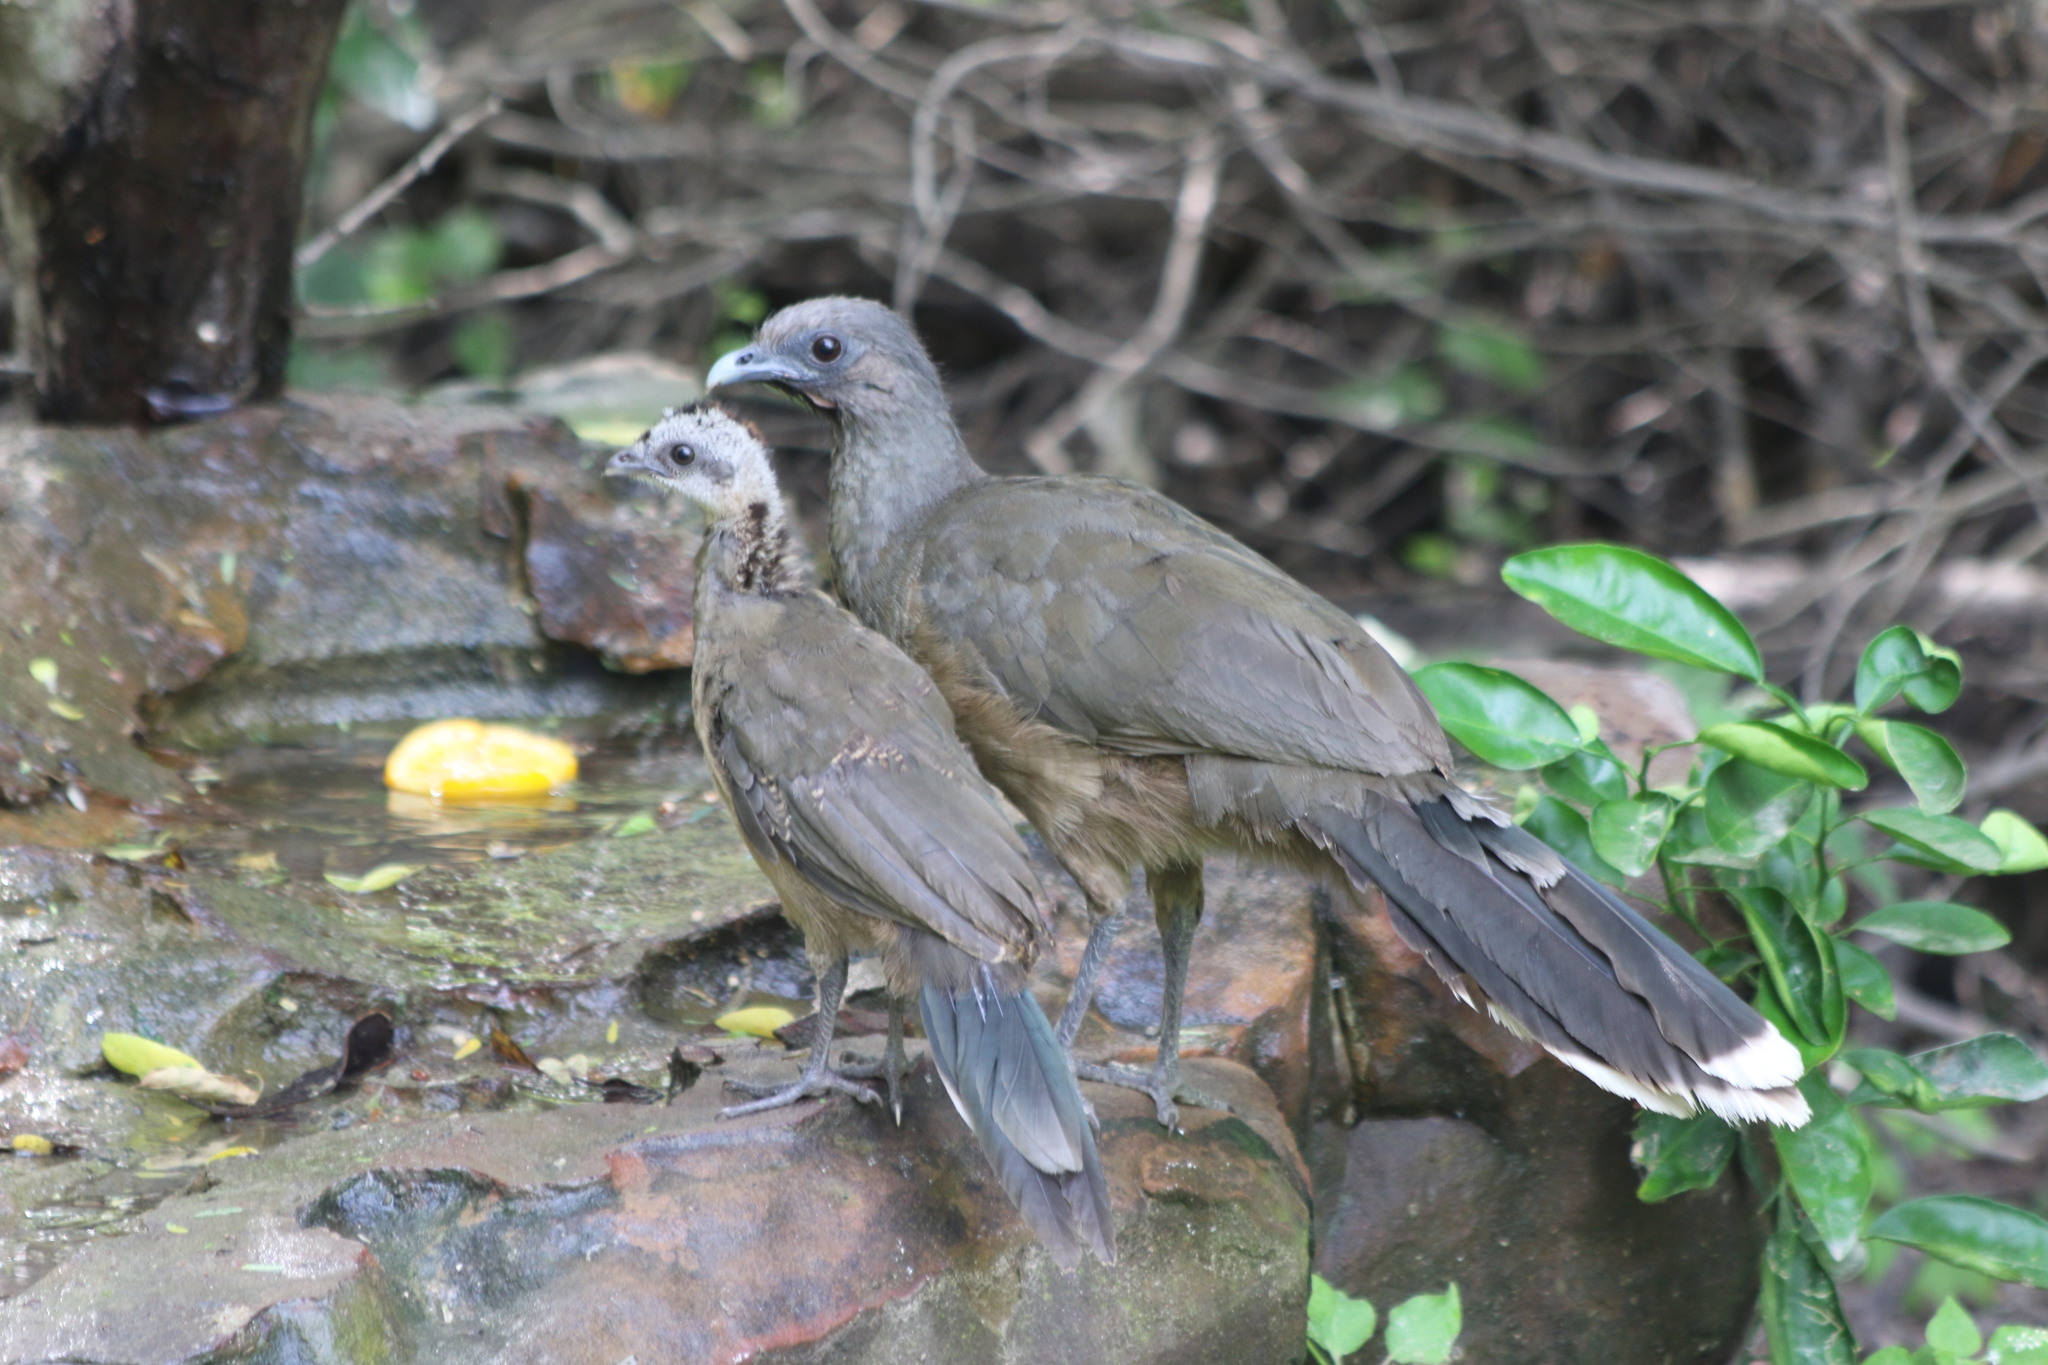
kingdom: Animalia
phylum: Chordata
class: Aves
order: Galliformes
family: Cracidae
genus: Ortalis
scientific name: Ortalis vetula
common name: Plain chachalaca
